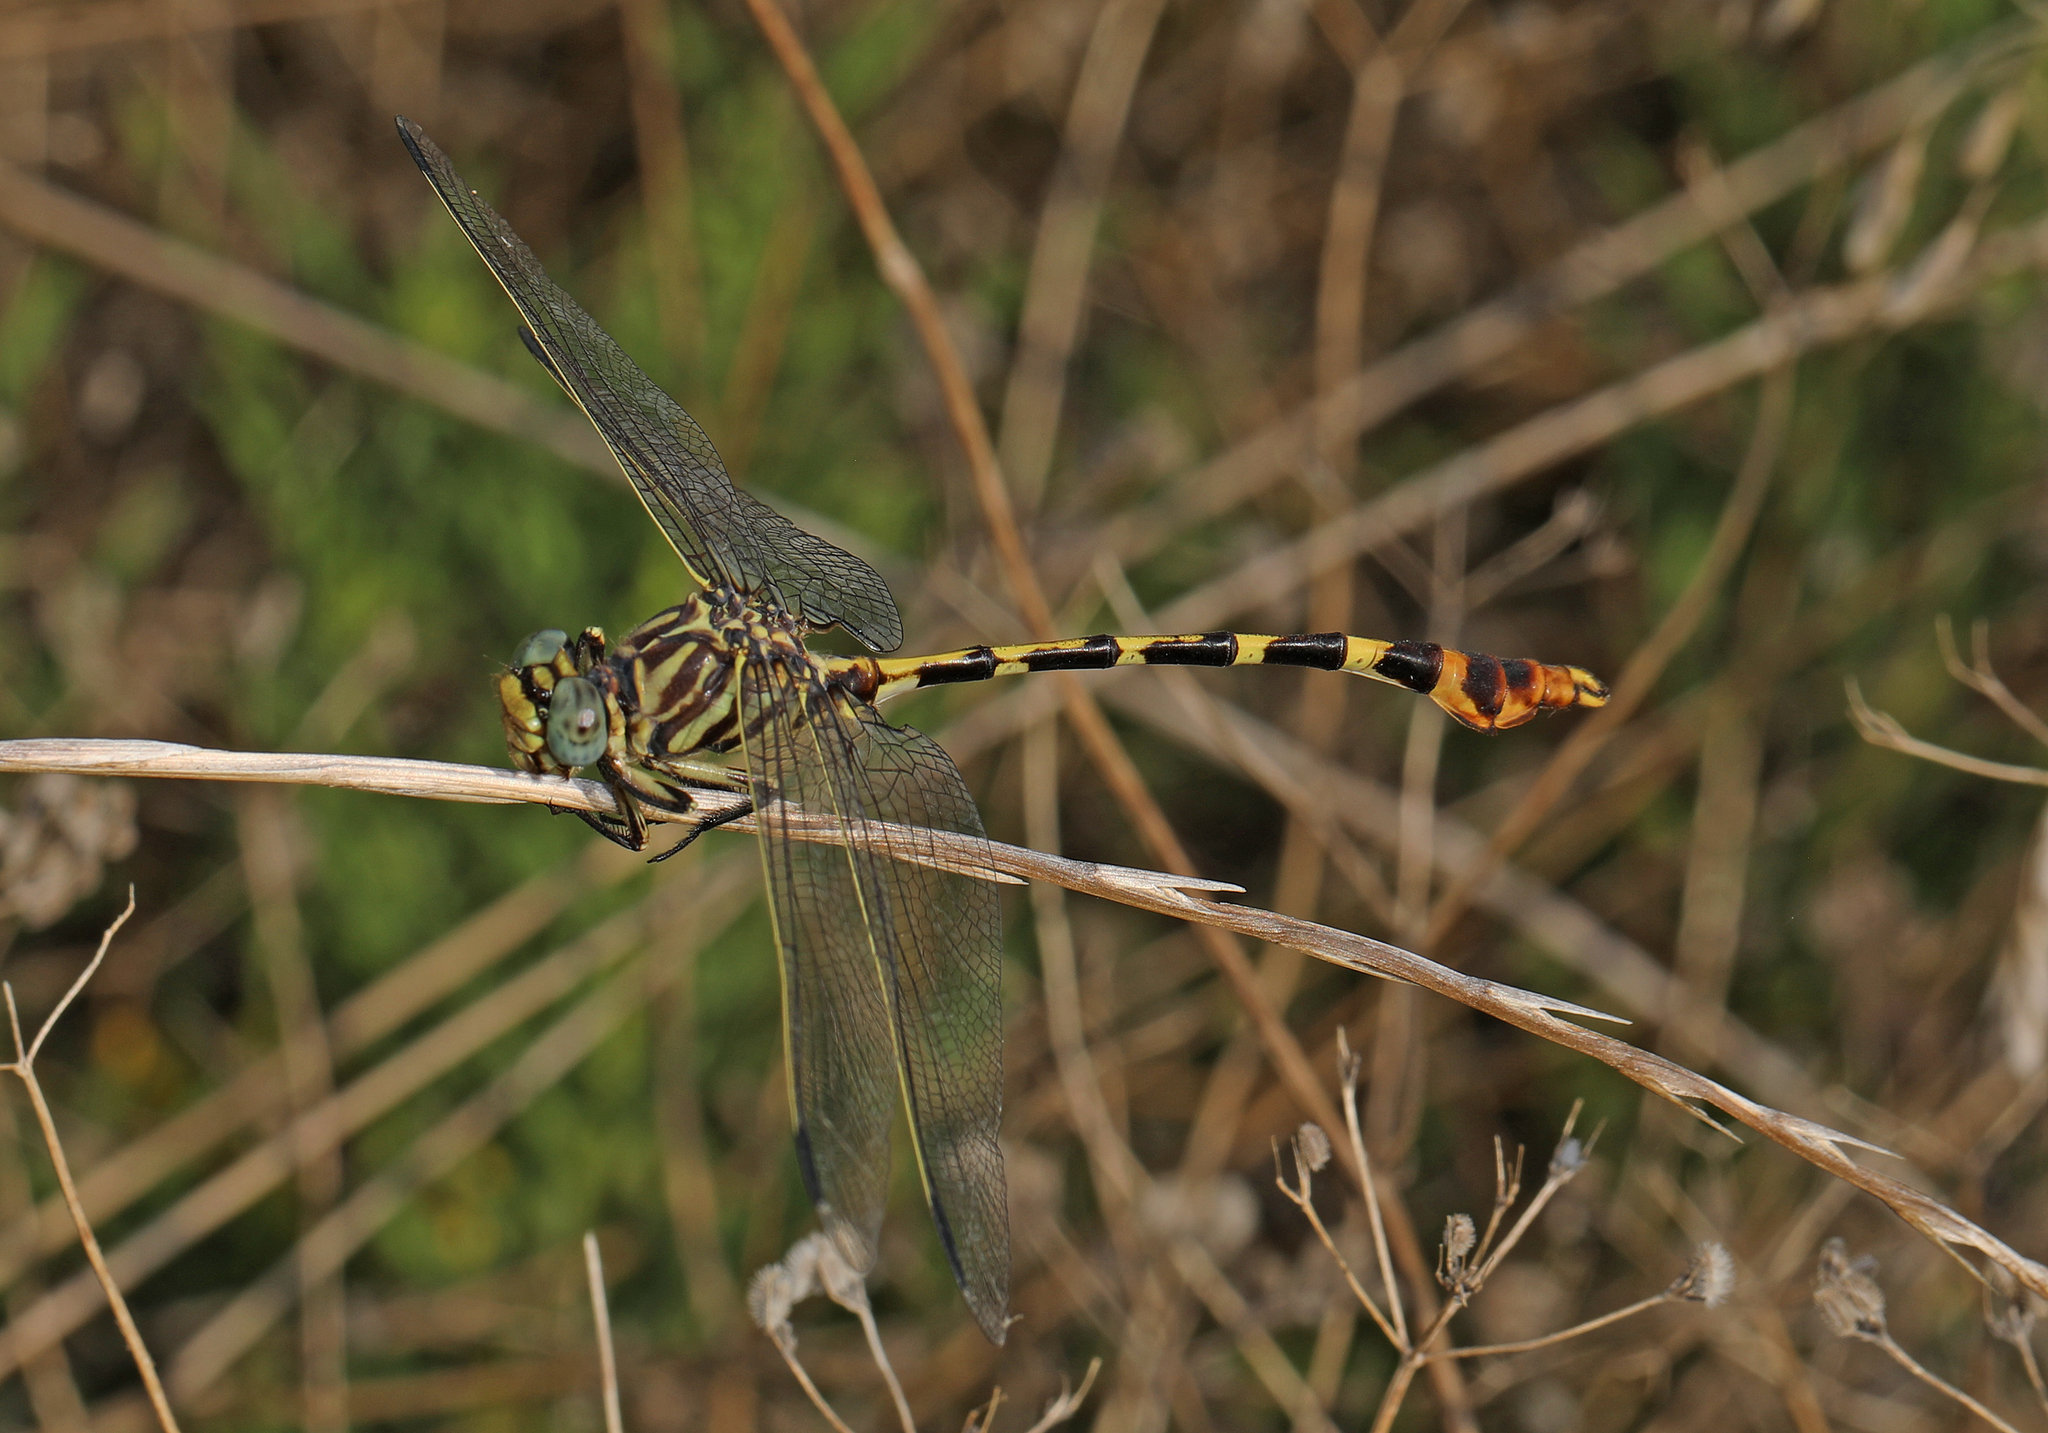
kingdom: Animalia
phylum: Arthropoda
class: Insecta
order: Odonata
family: Gomphidae
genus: Phyllogomphoides
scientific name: Phyllogomphoides stigmatus
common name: Four-striped leaftail
